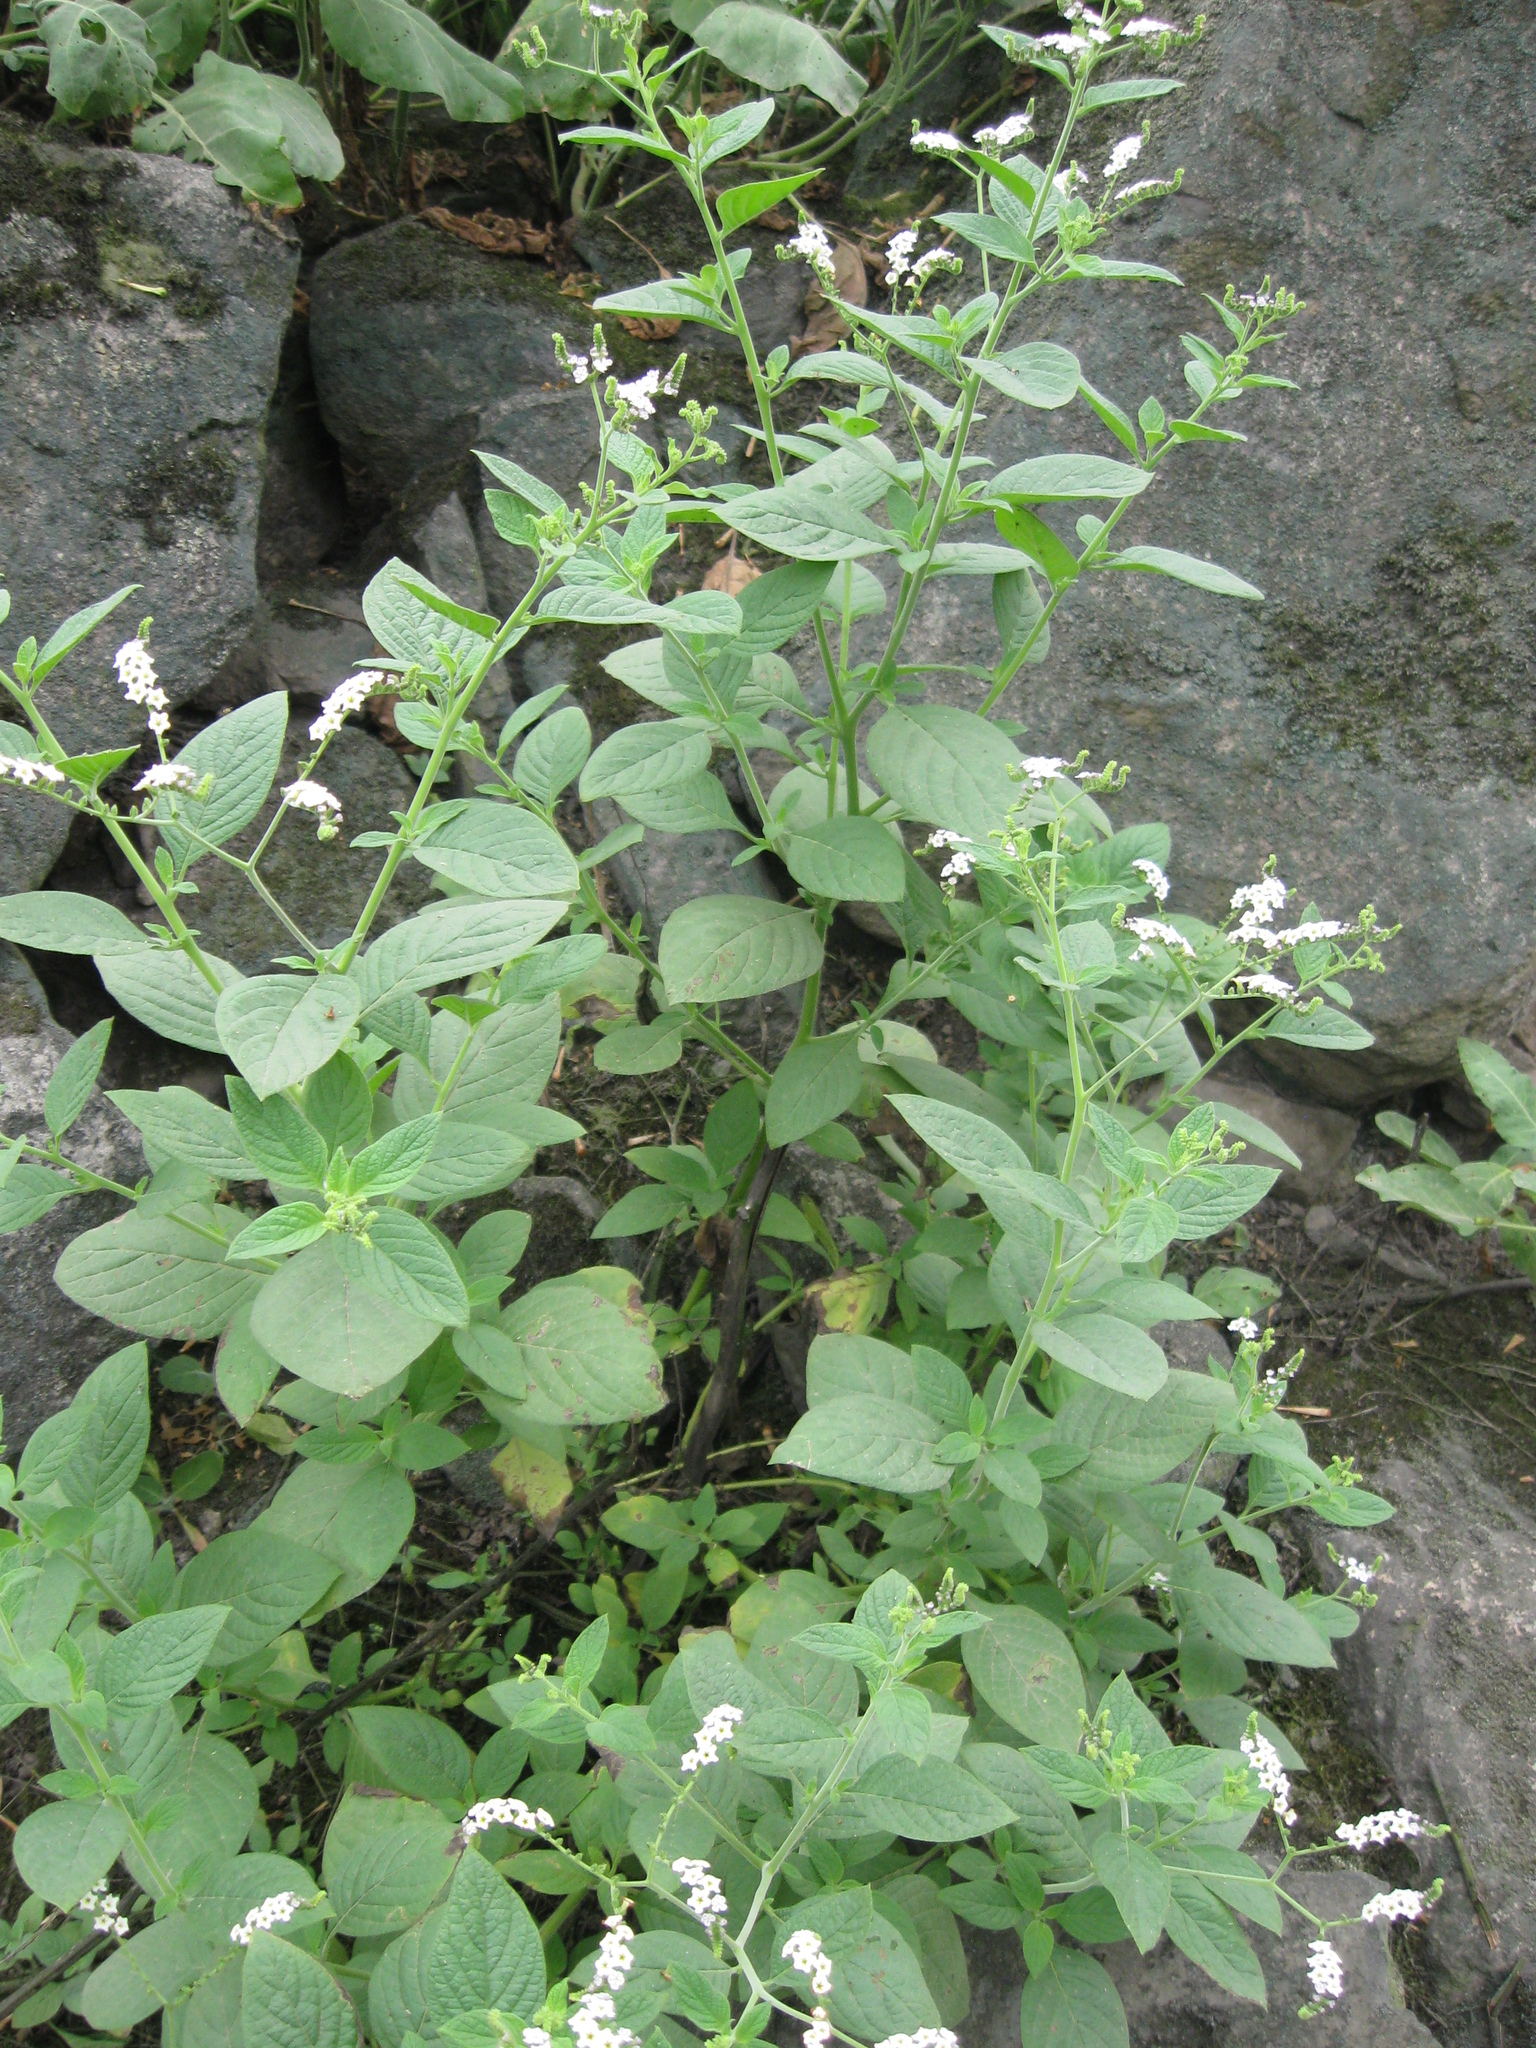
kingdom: Plantae
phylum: Tracheophyta
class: Magnoliopsida
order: Boraginales
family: Heliotropiaceae
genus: Heliotropium
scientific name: Heliotropium rufipilum
